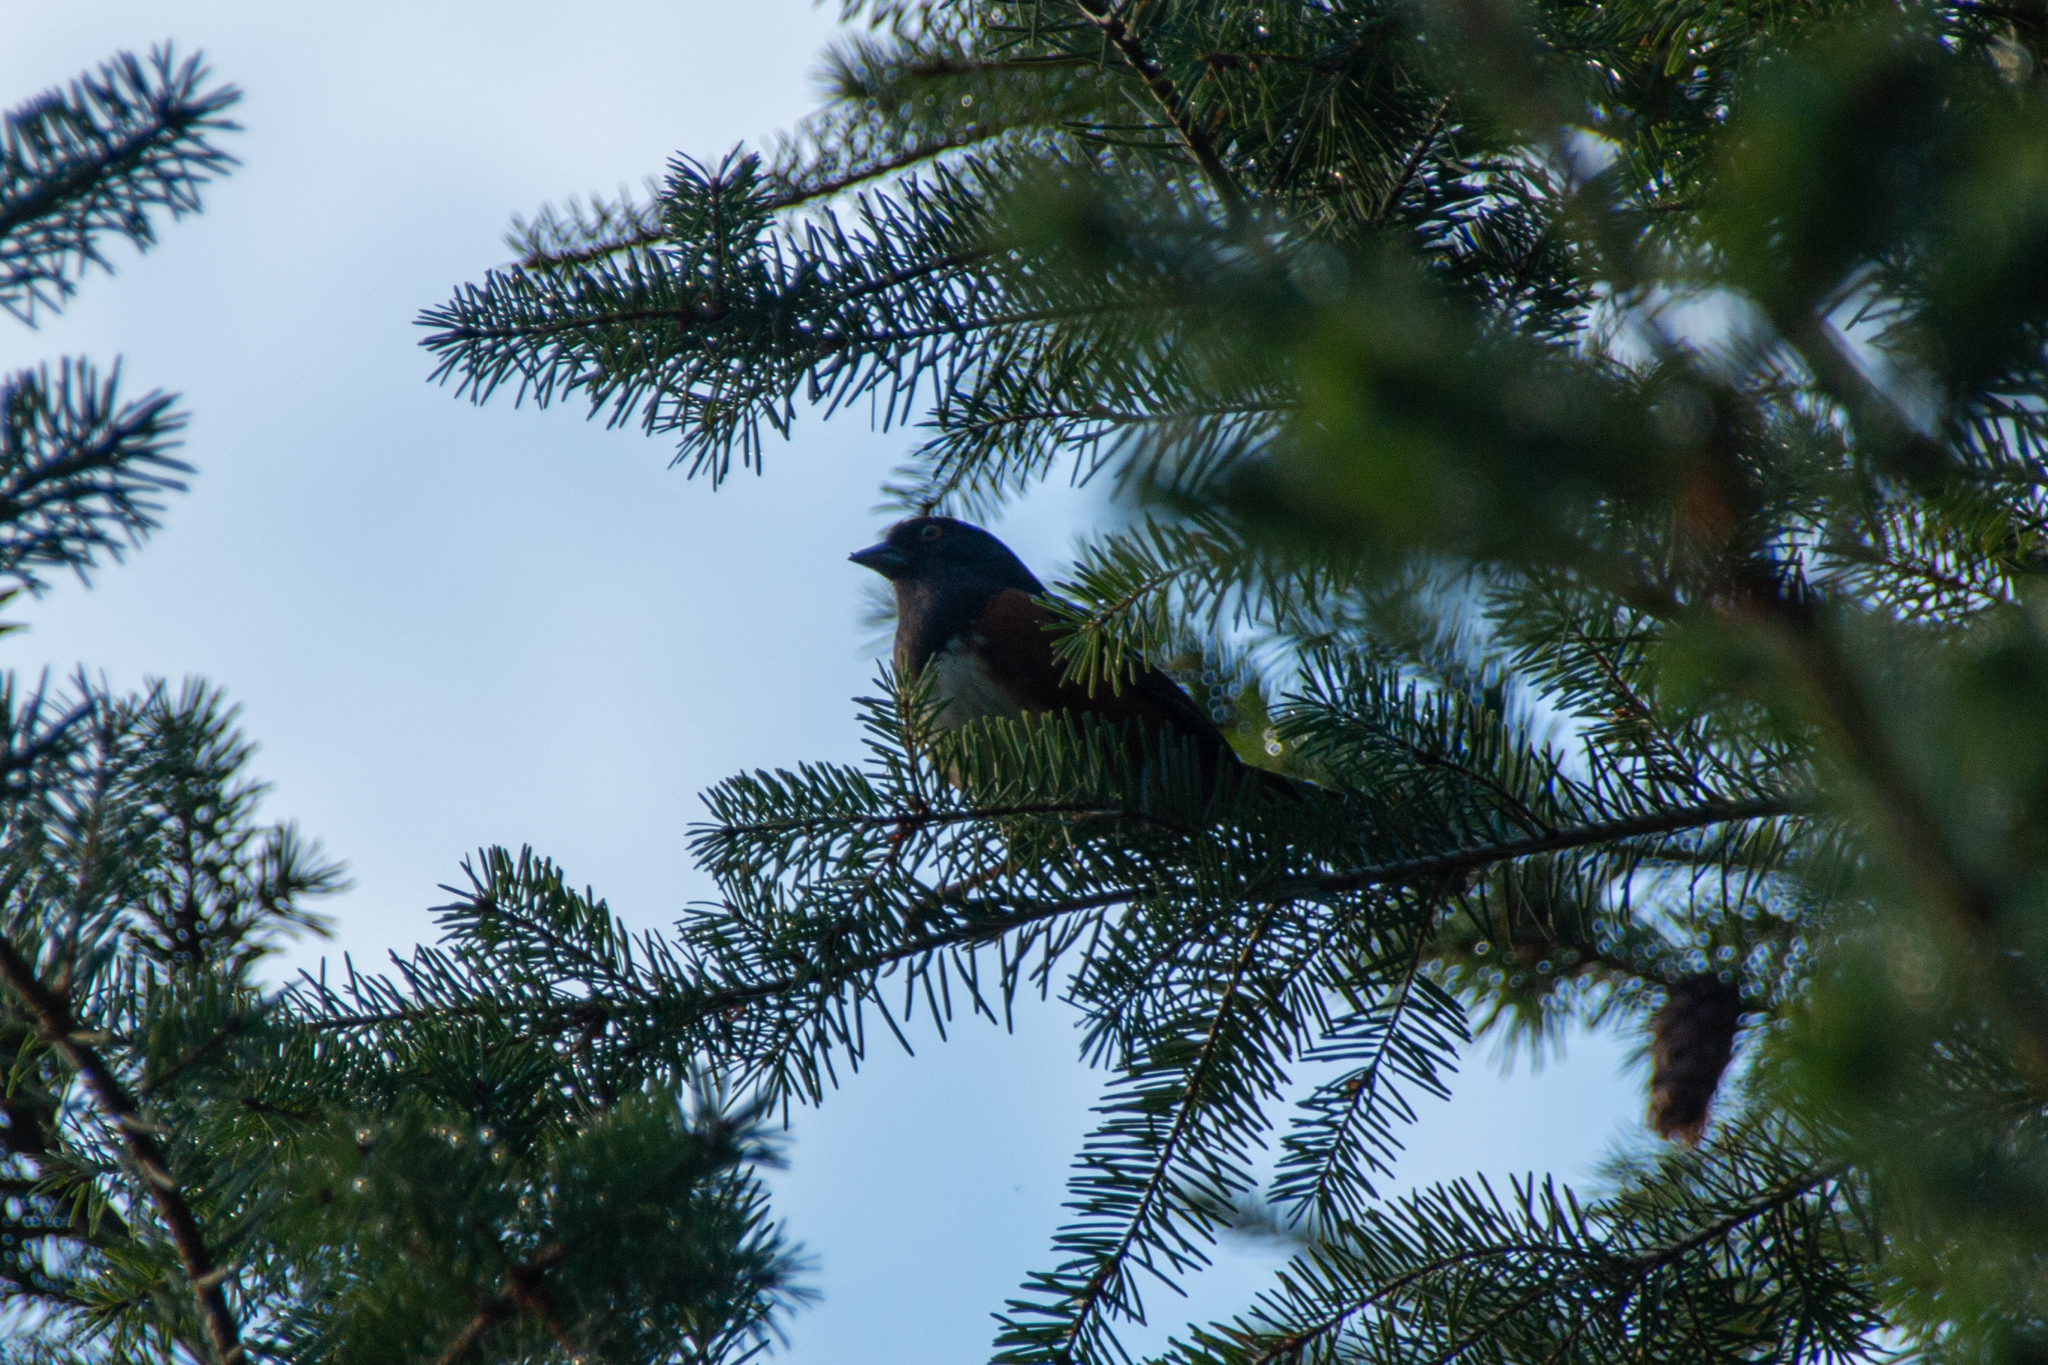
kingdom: Animalia
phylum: Chordata
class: Aves
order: Passeriformes
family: Passerellidae
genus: Pipilo
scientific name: Pipilo maculatus
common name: Spotted towhee
